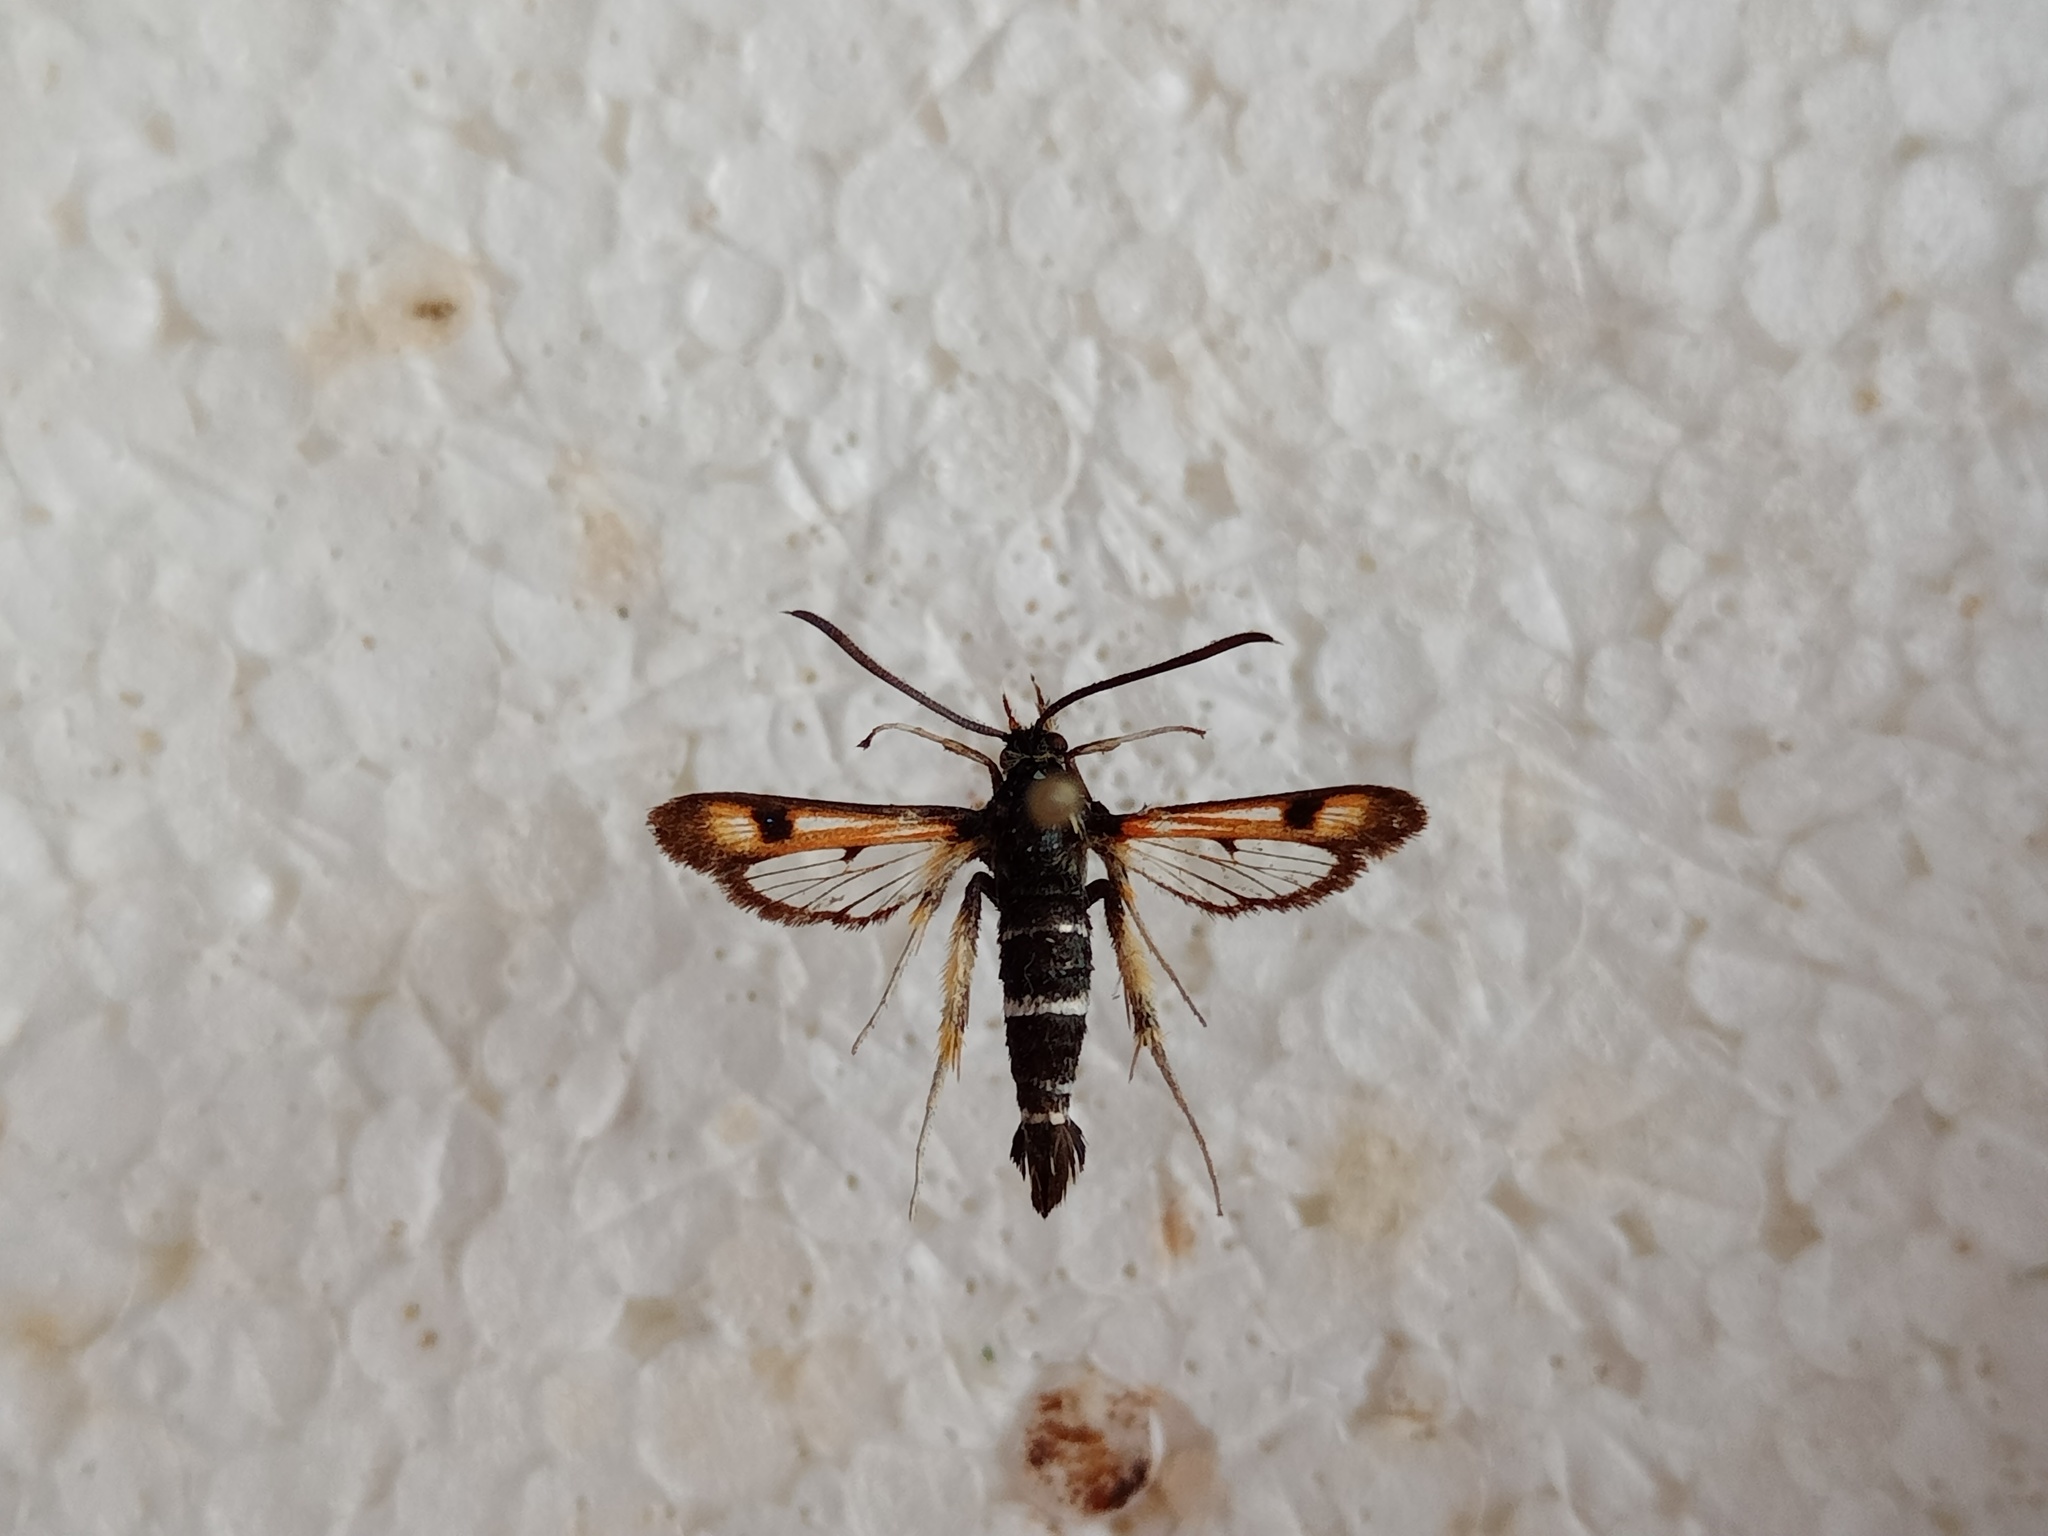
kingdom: Animalia
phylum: Arthropoda
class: Insecta
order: Lepidoptera
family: Sesiidae
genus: Pyropteron
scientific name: Pyropteron minianiformis
